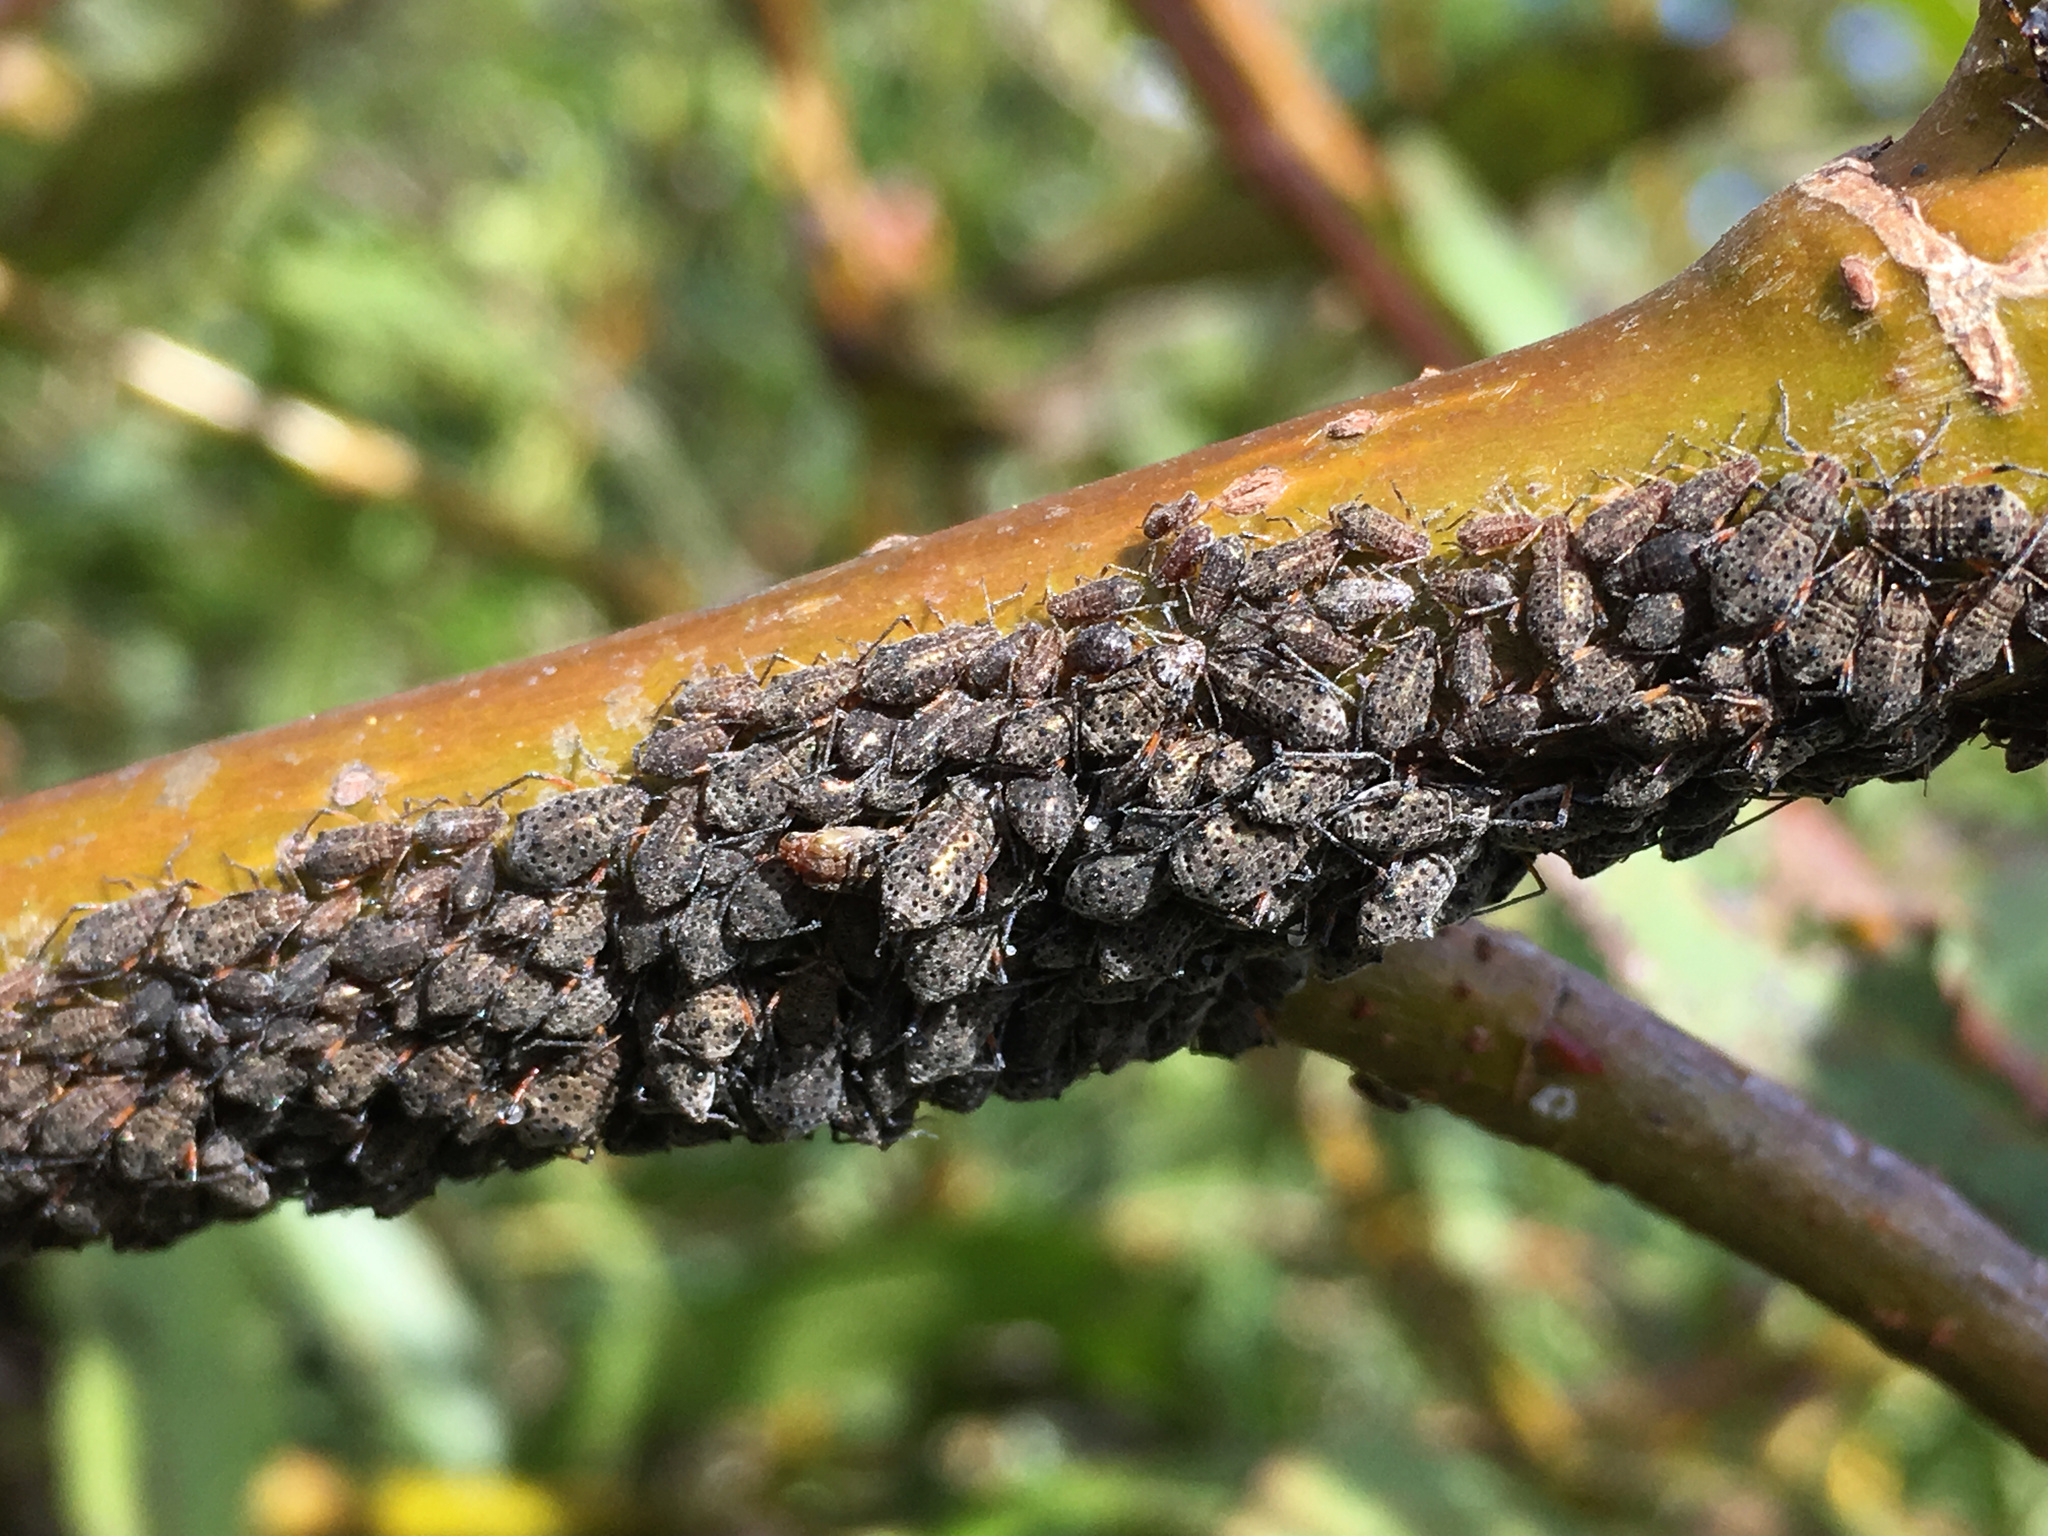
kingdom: Animalia
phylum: Arthropoda
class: Insecta
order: Hemiptera
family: Aphididae
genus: Tuberolachnus
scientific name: Tuberolachnus salignus
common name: Giant willow aphid
